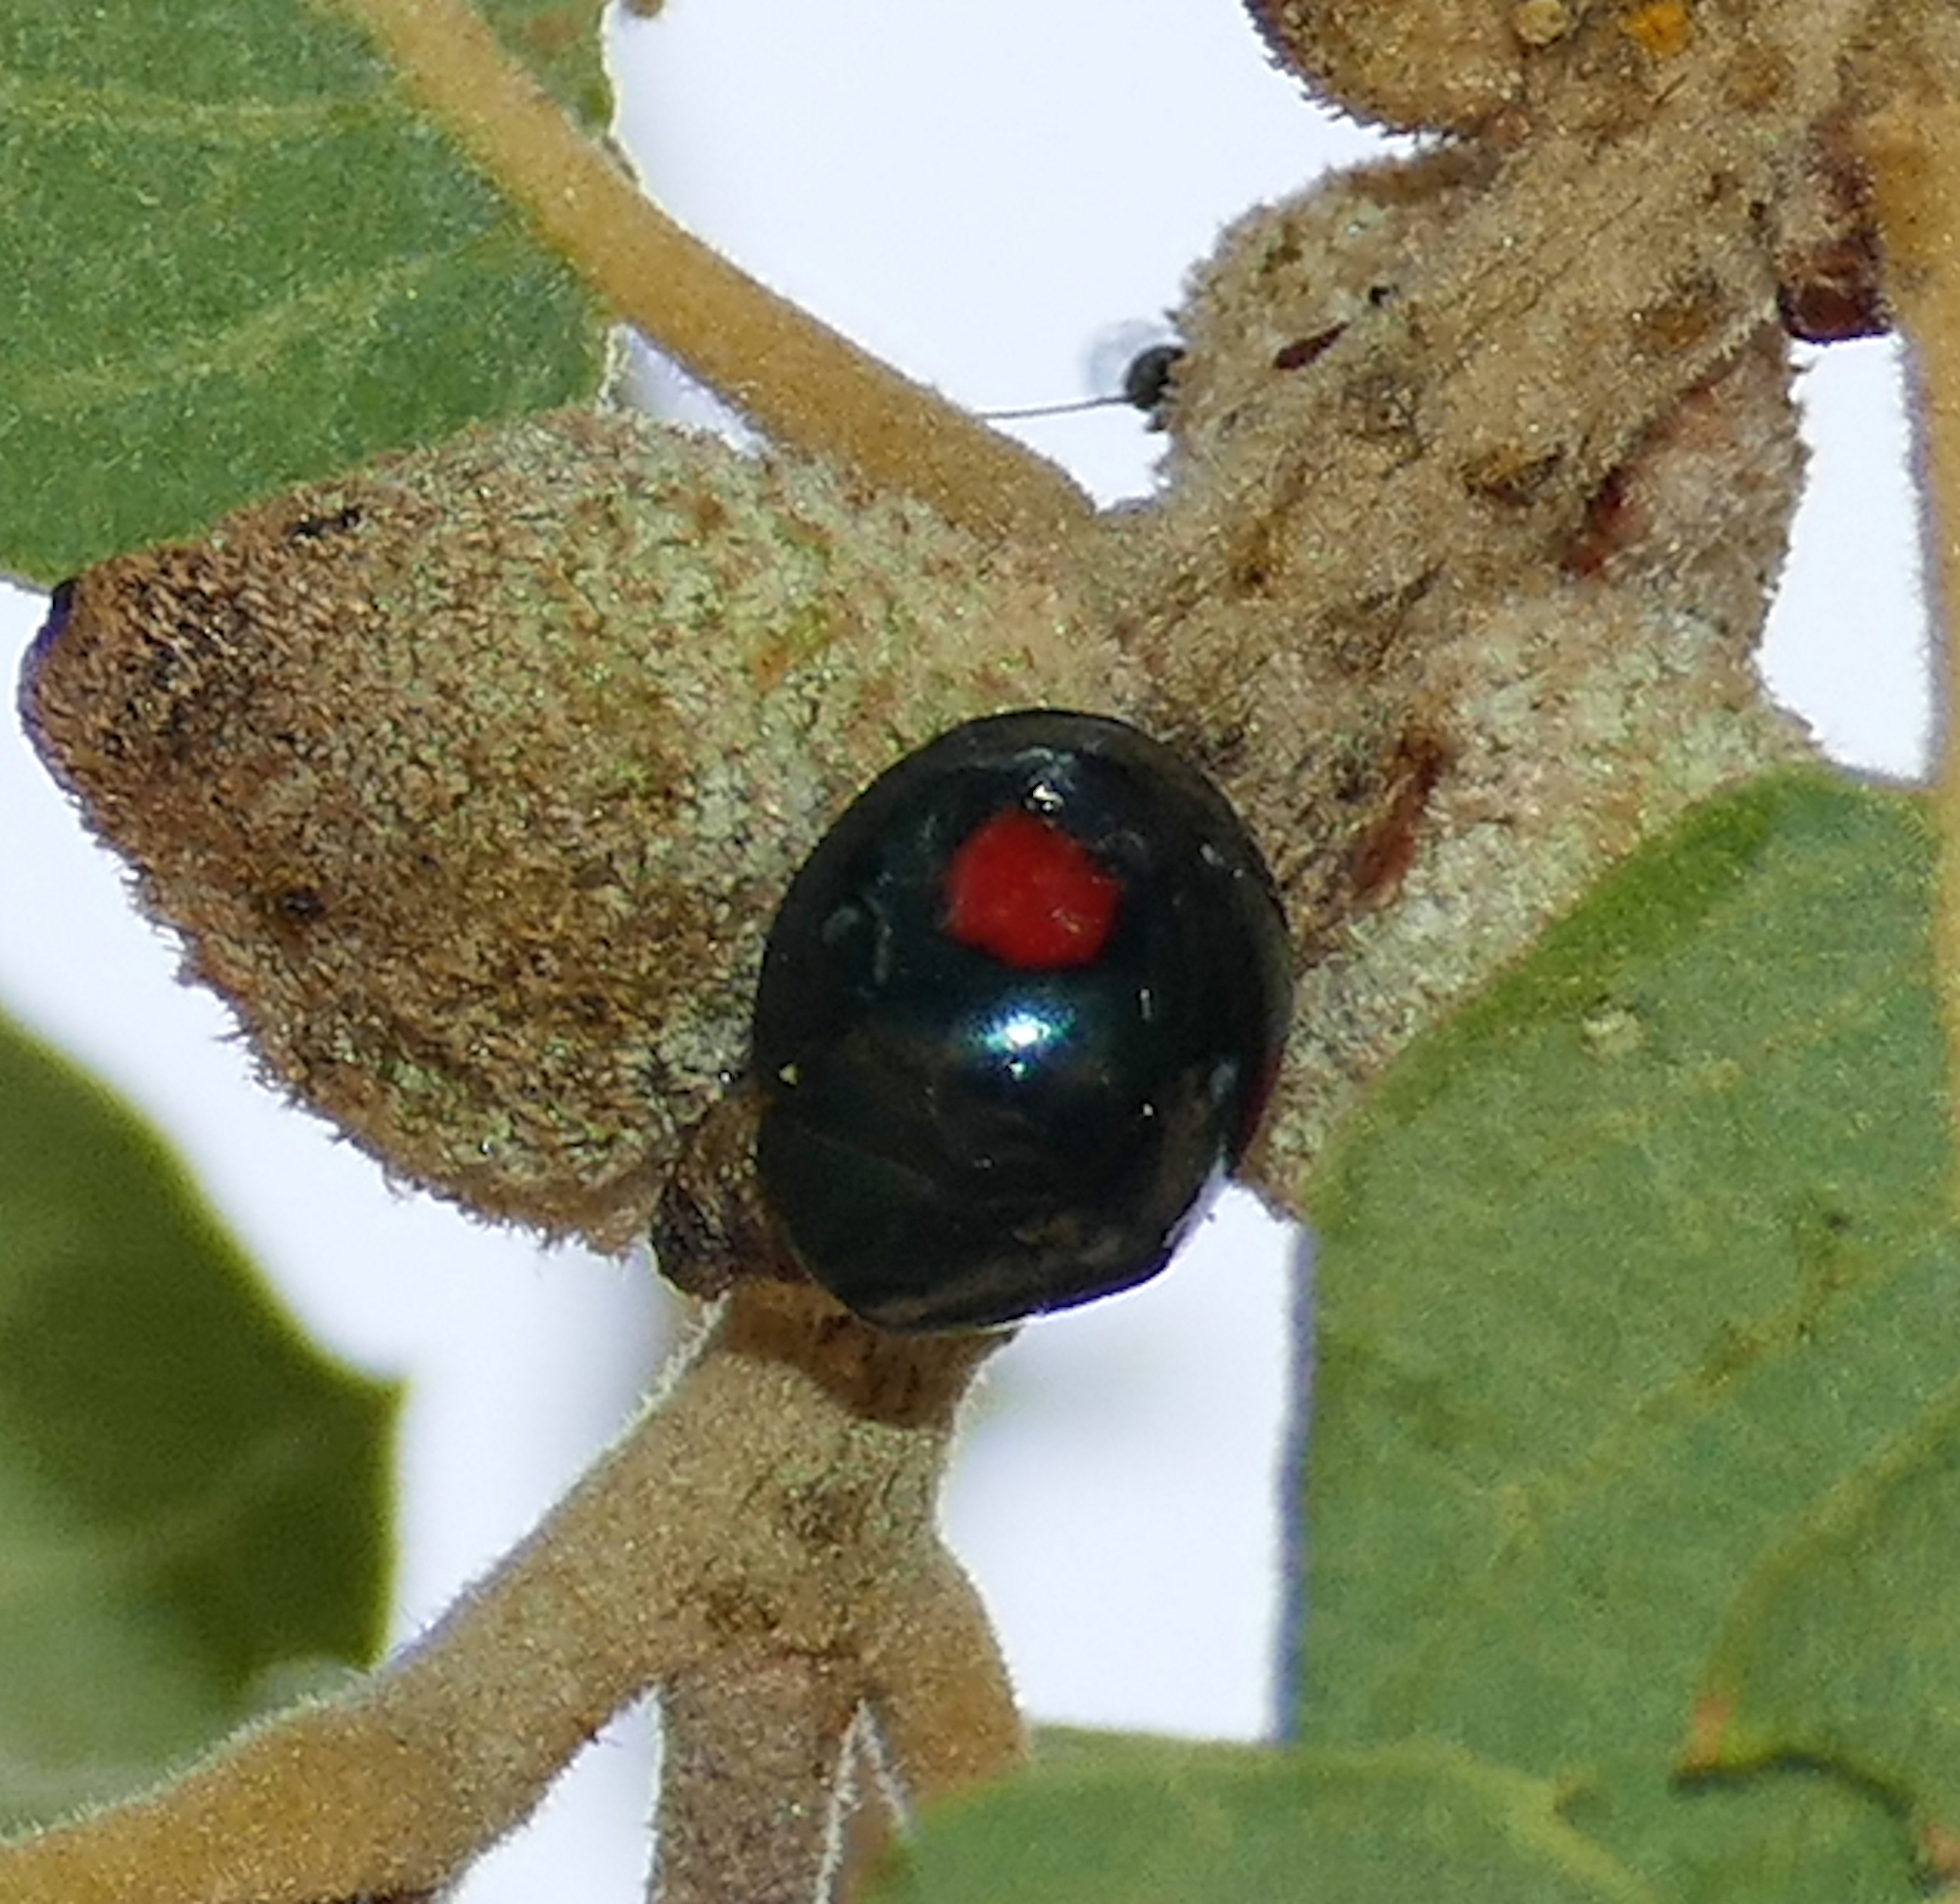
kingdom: Animalia
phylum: Arthropoda
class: Insecta
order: Coleoptera
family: Coccinellidae
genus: Thalassa
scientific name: Thalassa montezumae
